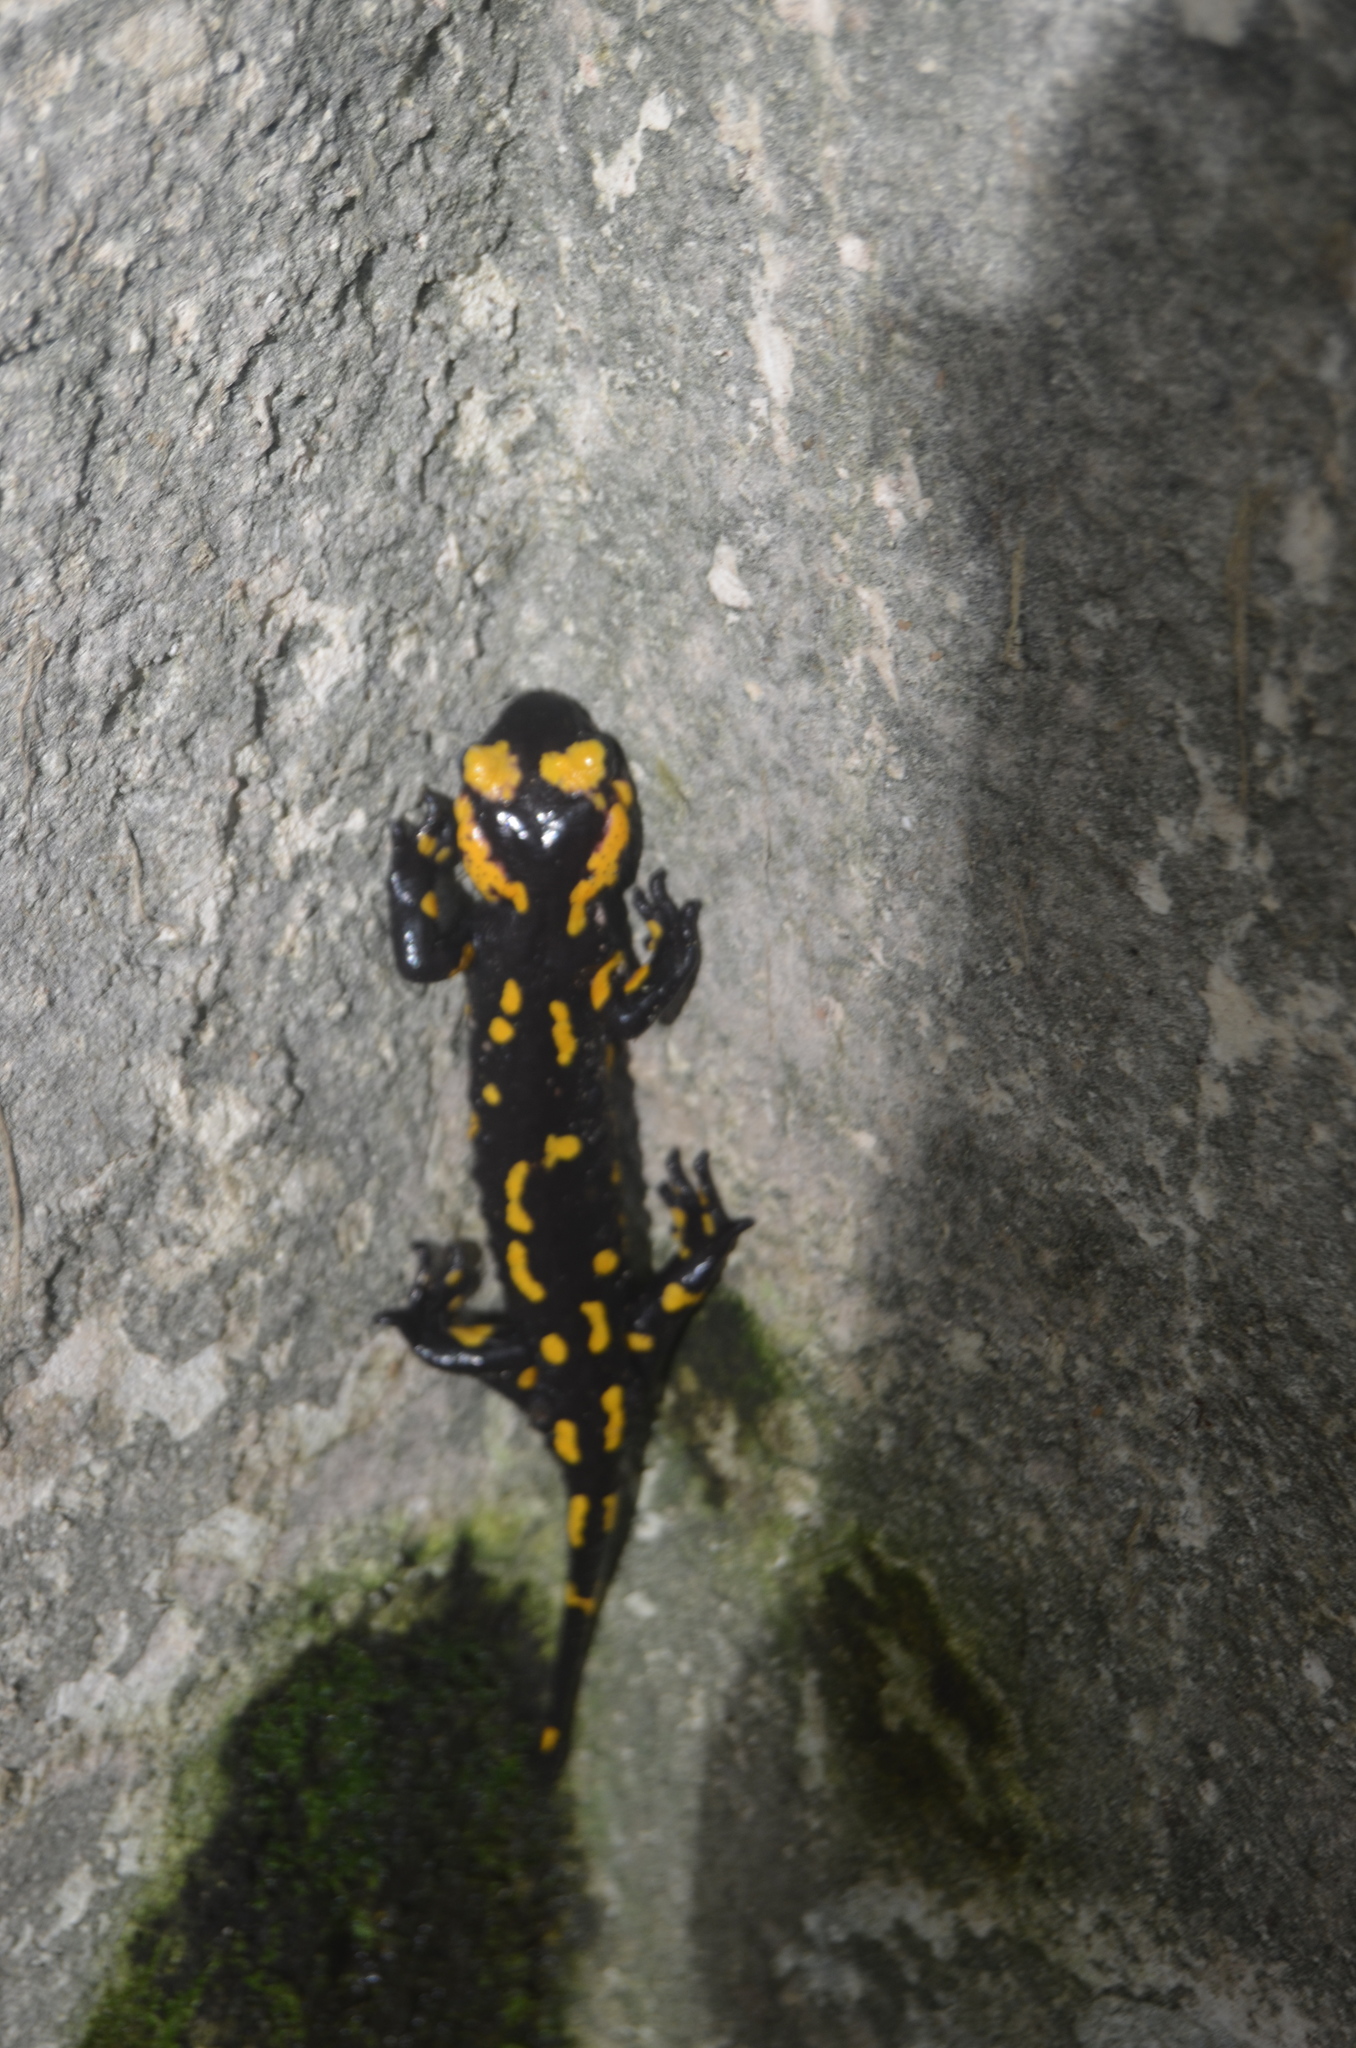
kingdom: Animalia
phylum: Chordata
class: Amphibia
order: Caudata
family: Salamandridae
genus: Salamandra
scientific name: Salamandra salamandra
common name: Fire salamander
